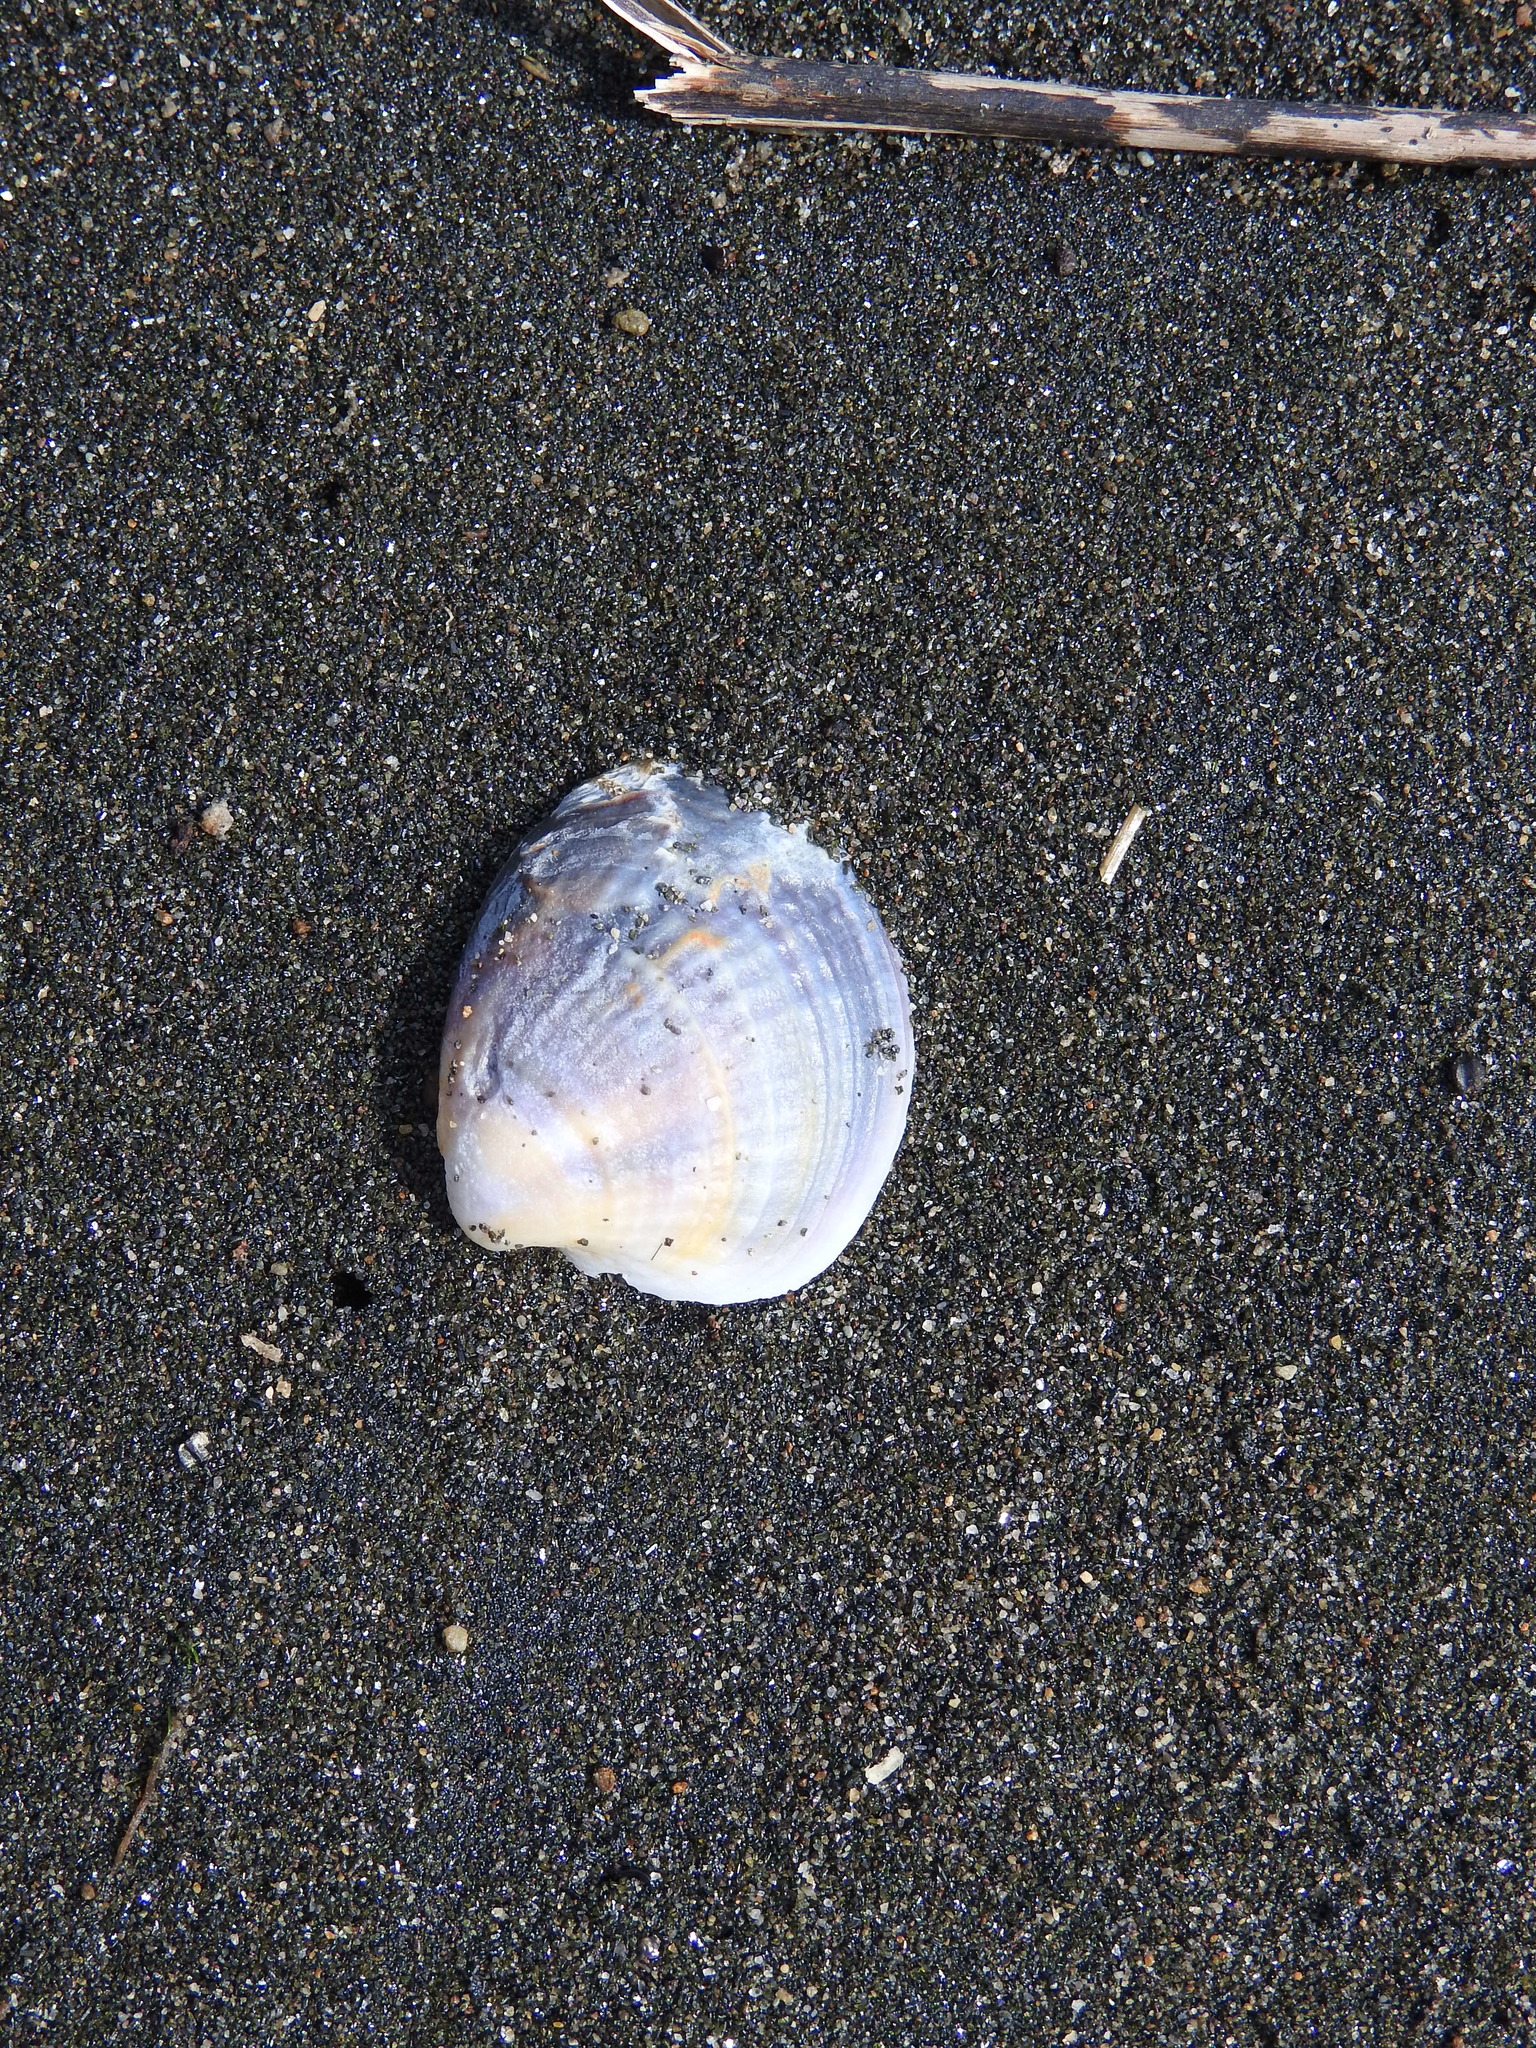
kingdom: Animalia
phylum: Mollusca
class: Bivalvia
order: Venerida
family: Veneridae
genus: Austrovenus
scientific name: Austrovenus stutchburyi
